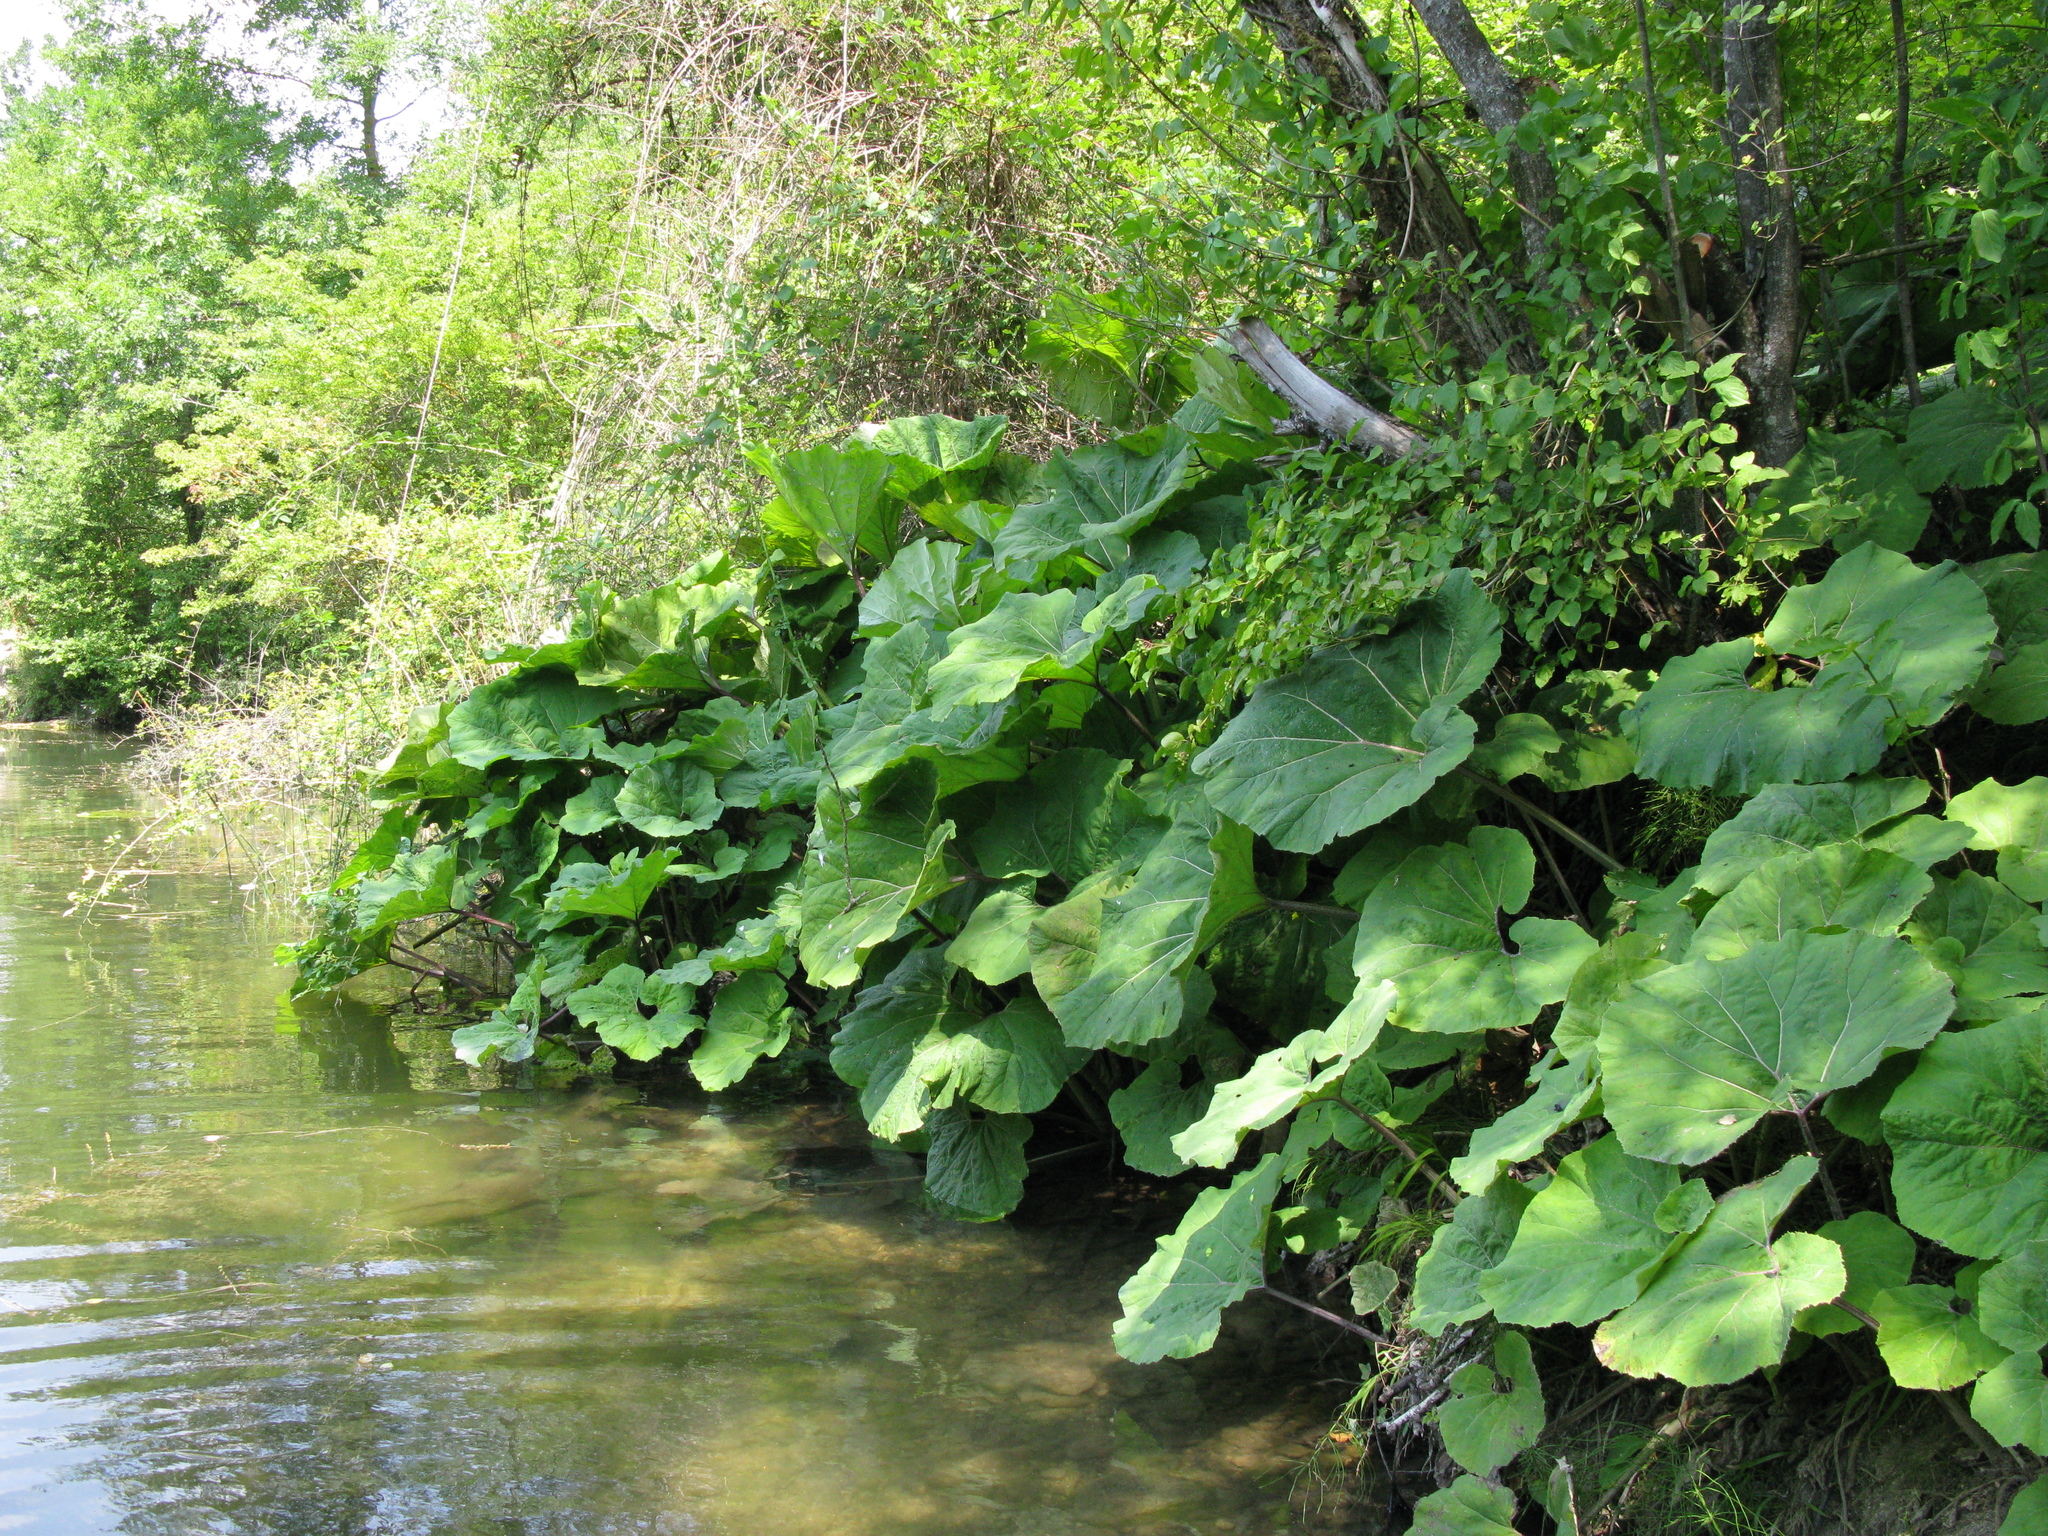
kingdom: Plantae
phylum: Tracheophyta
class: Magnoliopsida
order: Asterales
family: Asteraceae
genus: Petasites
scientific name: Petasites hybridus
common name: Butterbur
